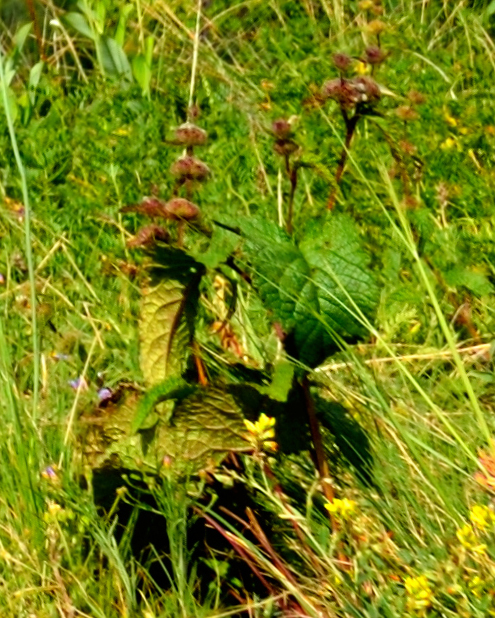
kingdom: Plantae
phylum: Tracheophyta
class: Magnoliopsida
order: Lamiales
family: Lamiaceae
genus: Phlomoides
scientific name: Phlomoides tuberosa
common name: Tuberous jerusalem sage
